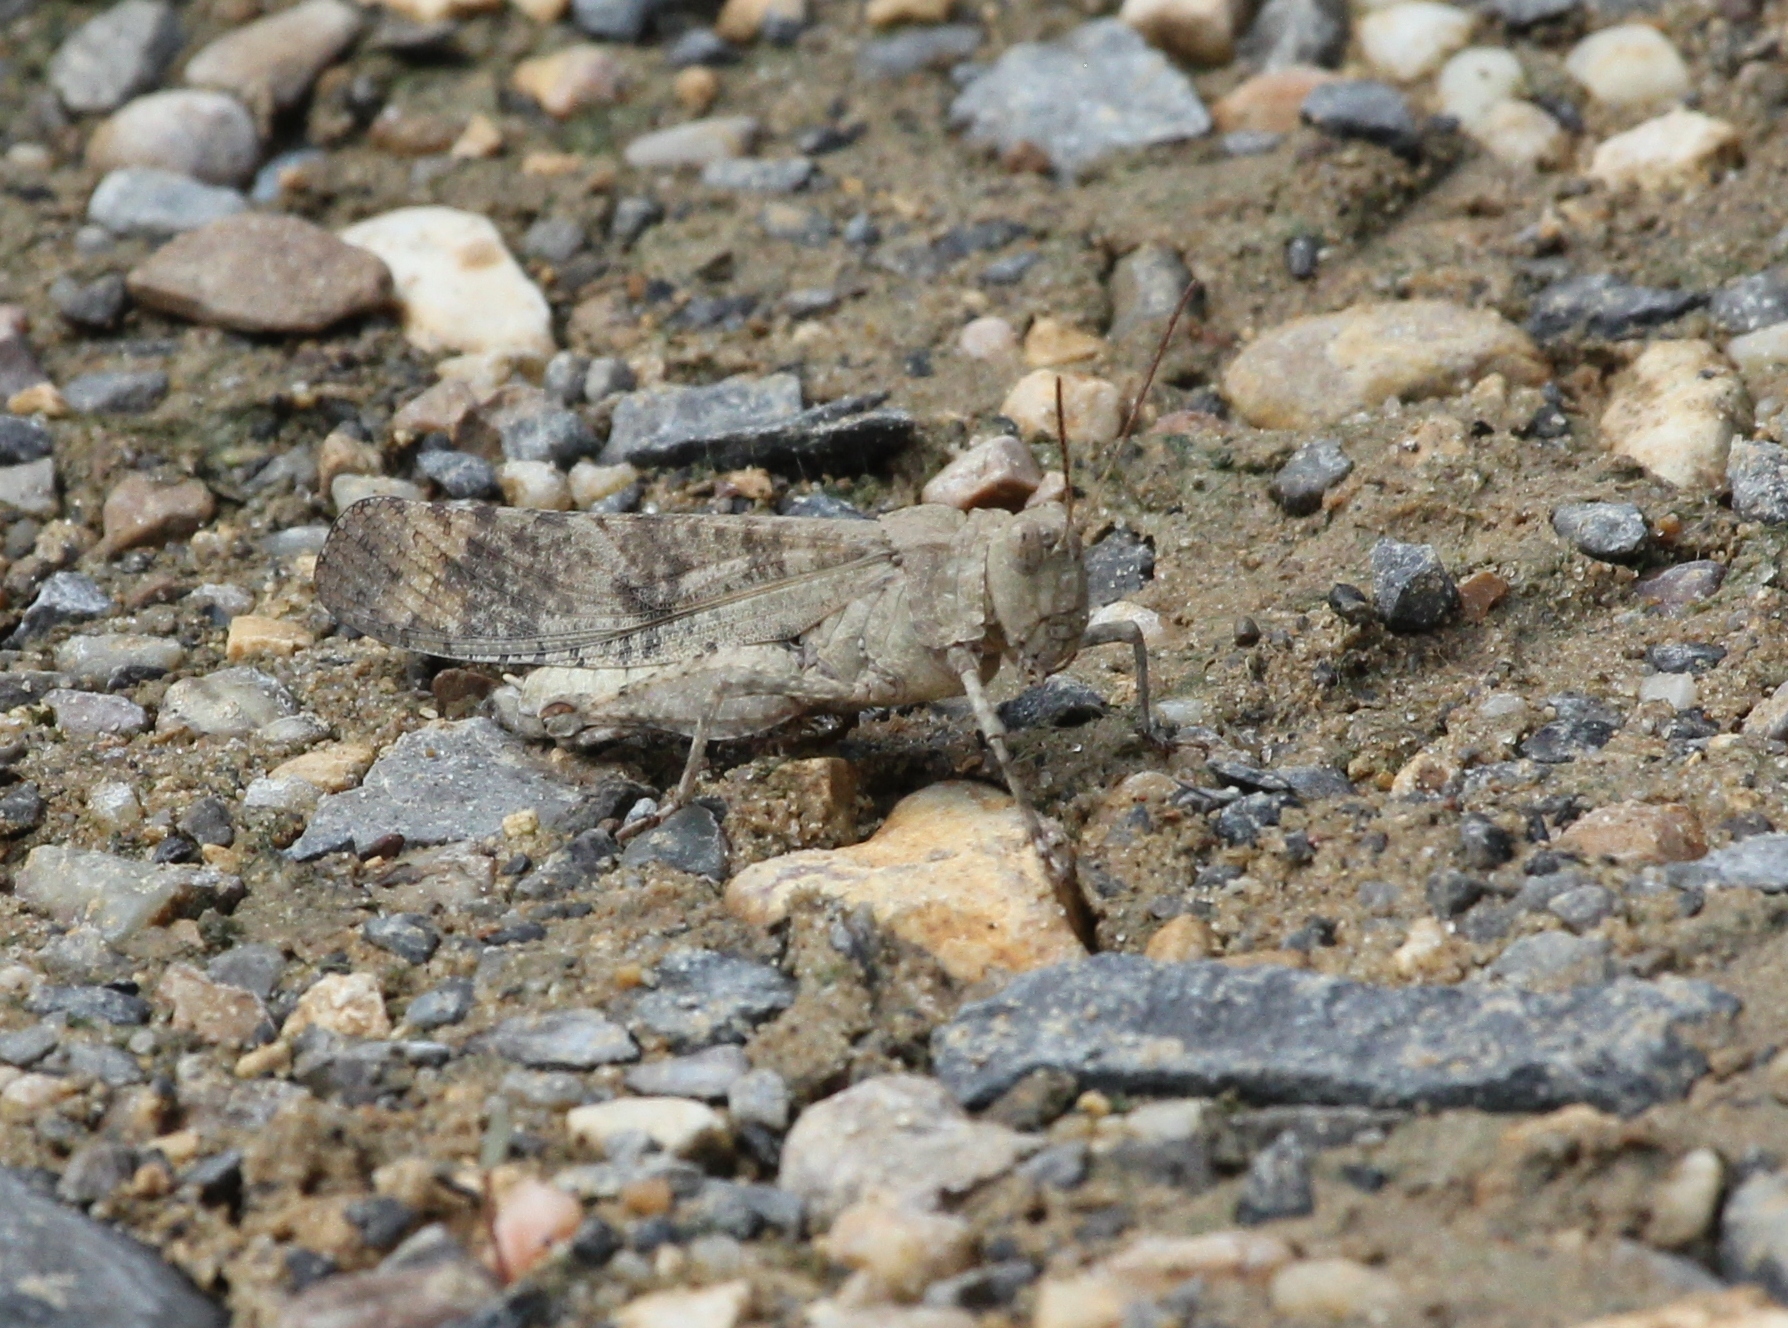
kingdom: Animalia
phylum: Arthropoda
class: Insecta
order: Orthoptera
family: Acrididae
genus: Dissosteira
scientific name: Dissosteira carolina
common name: Carolina grasshopper
